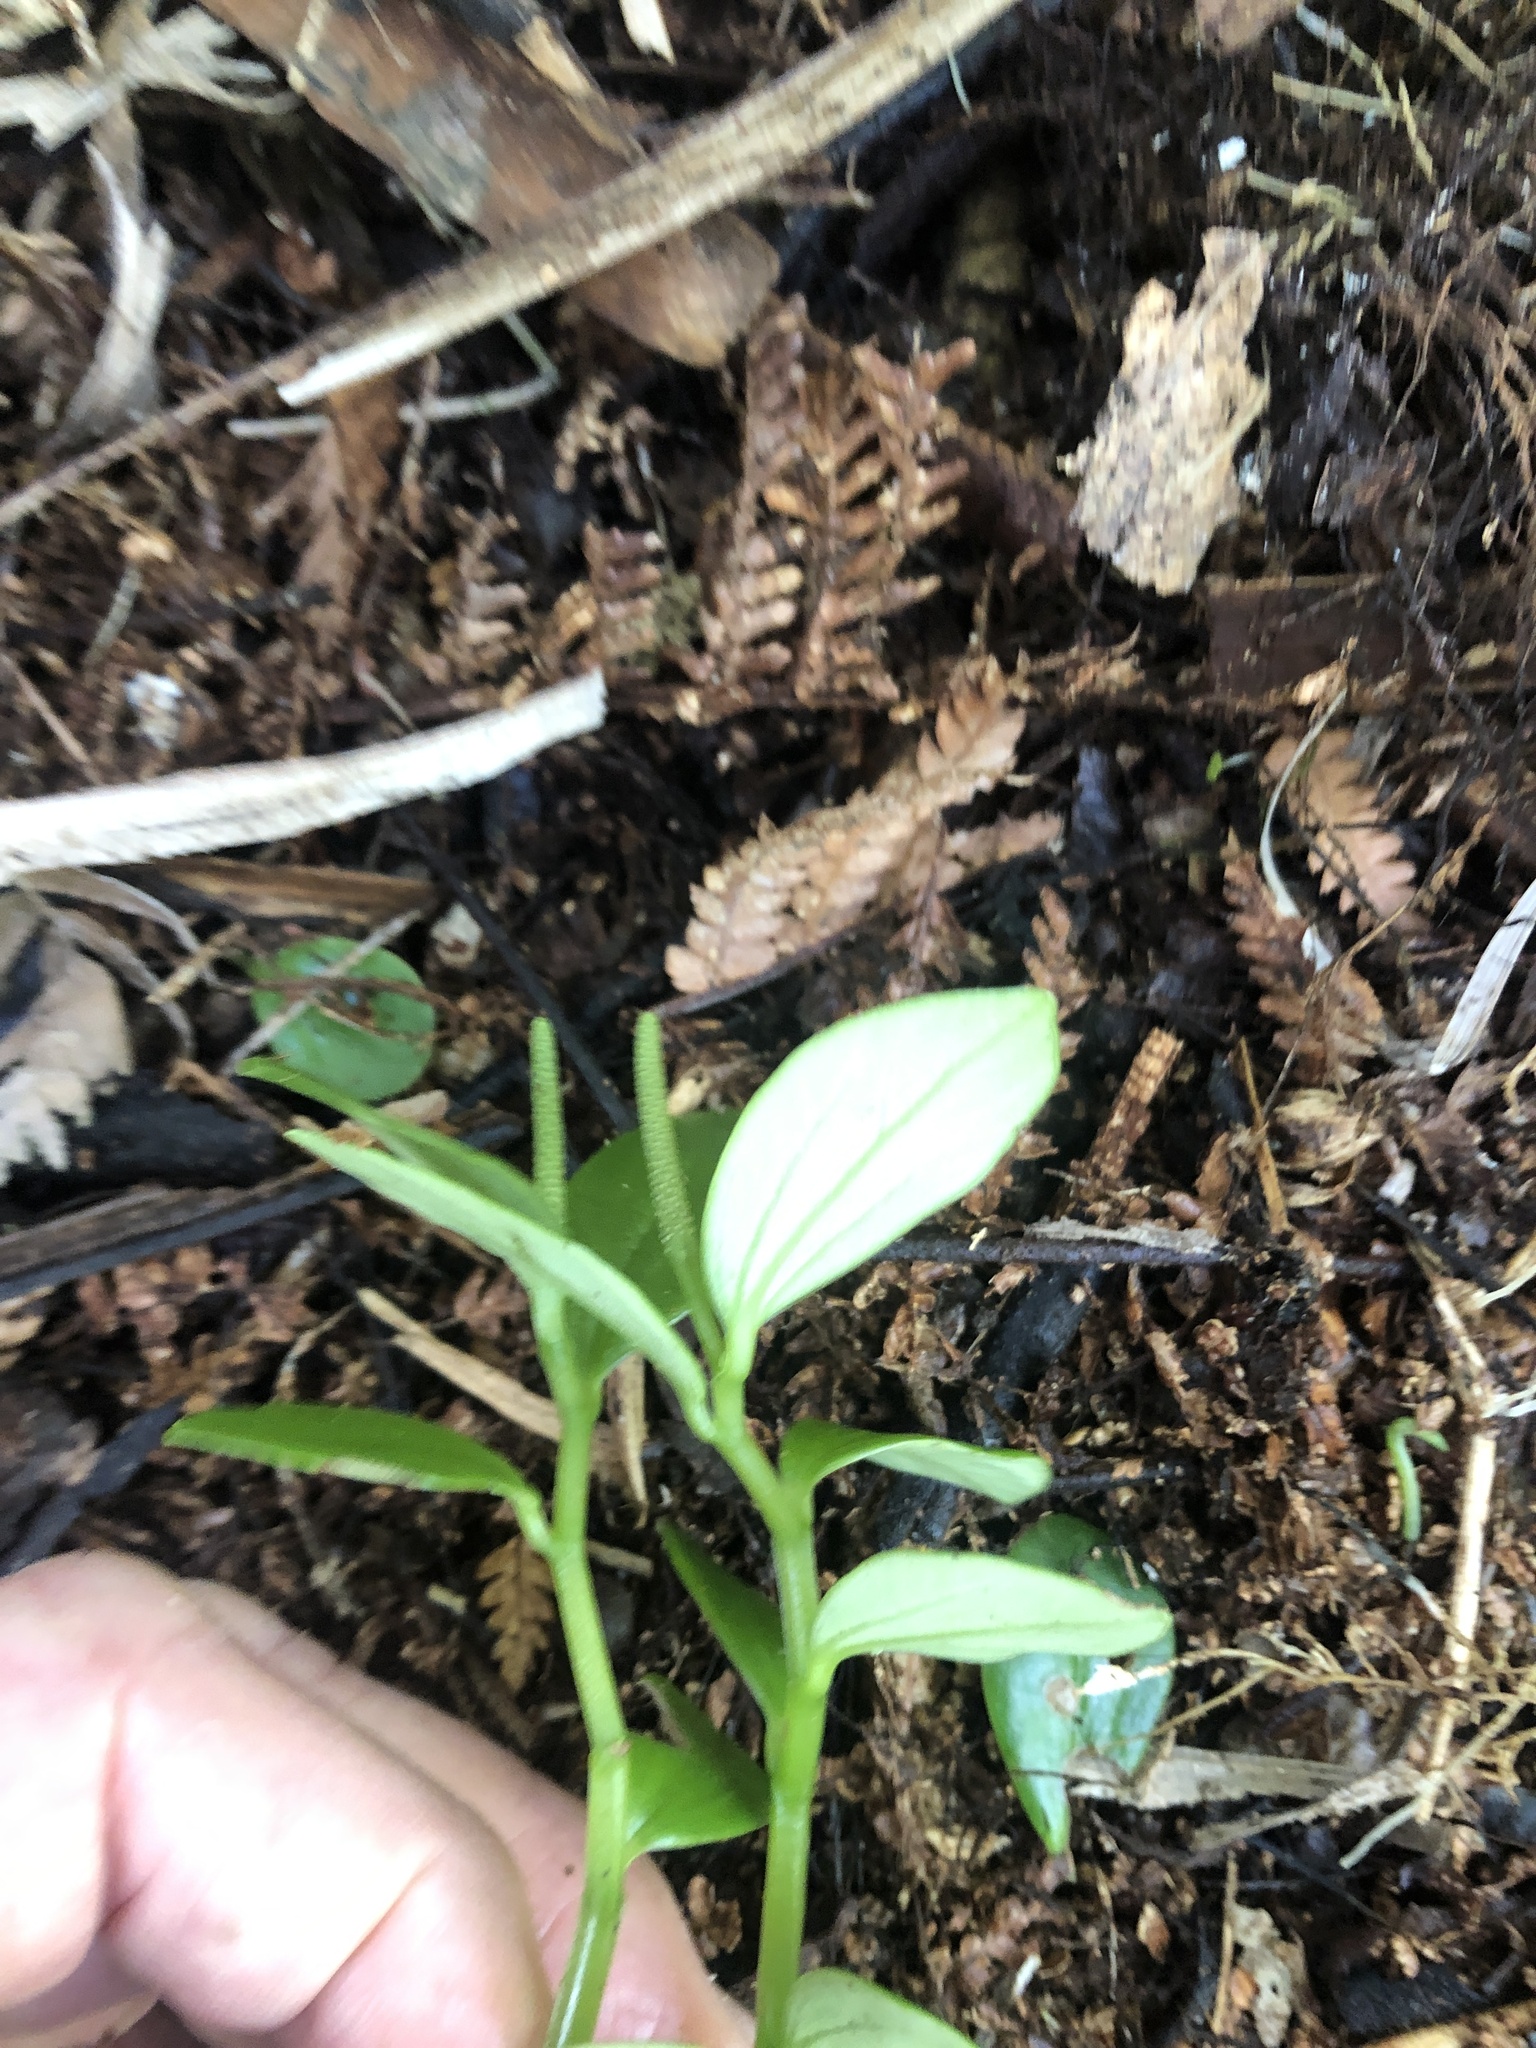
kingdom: Plantae
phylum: Tracheophyta
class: Magnoliopsida
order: Piperales
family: Piperaceae
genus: Peperomia
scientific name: Peperomia urvilleana
